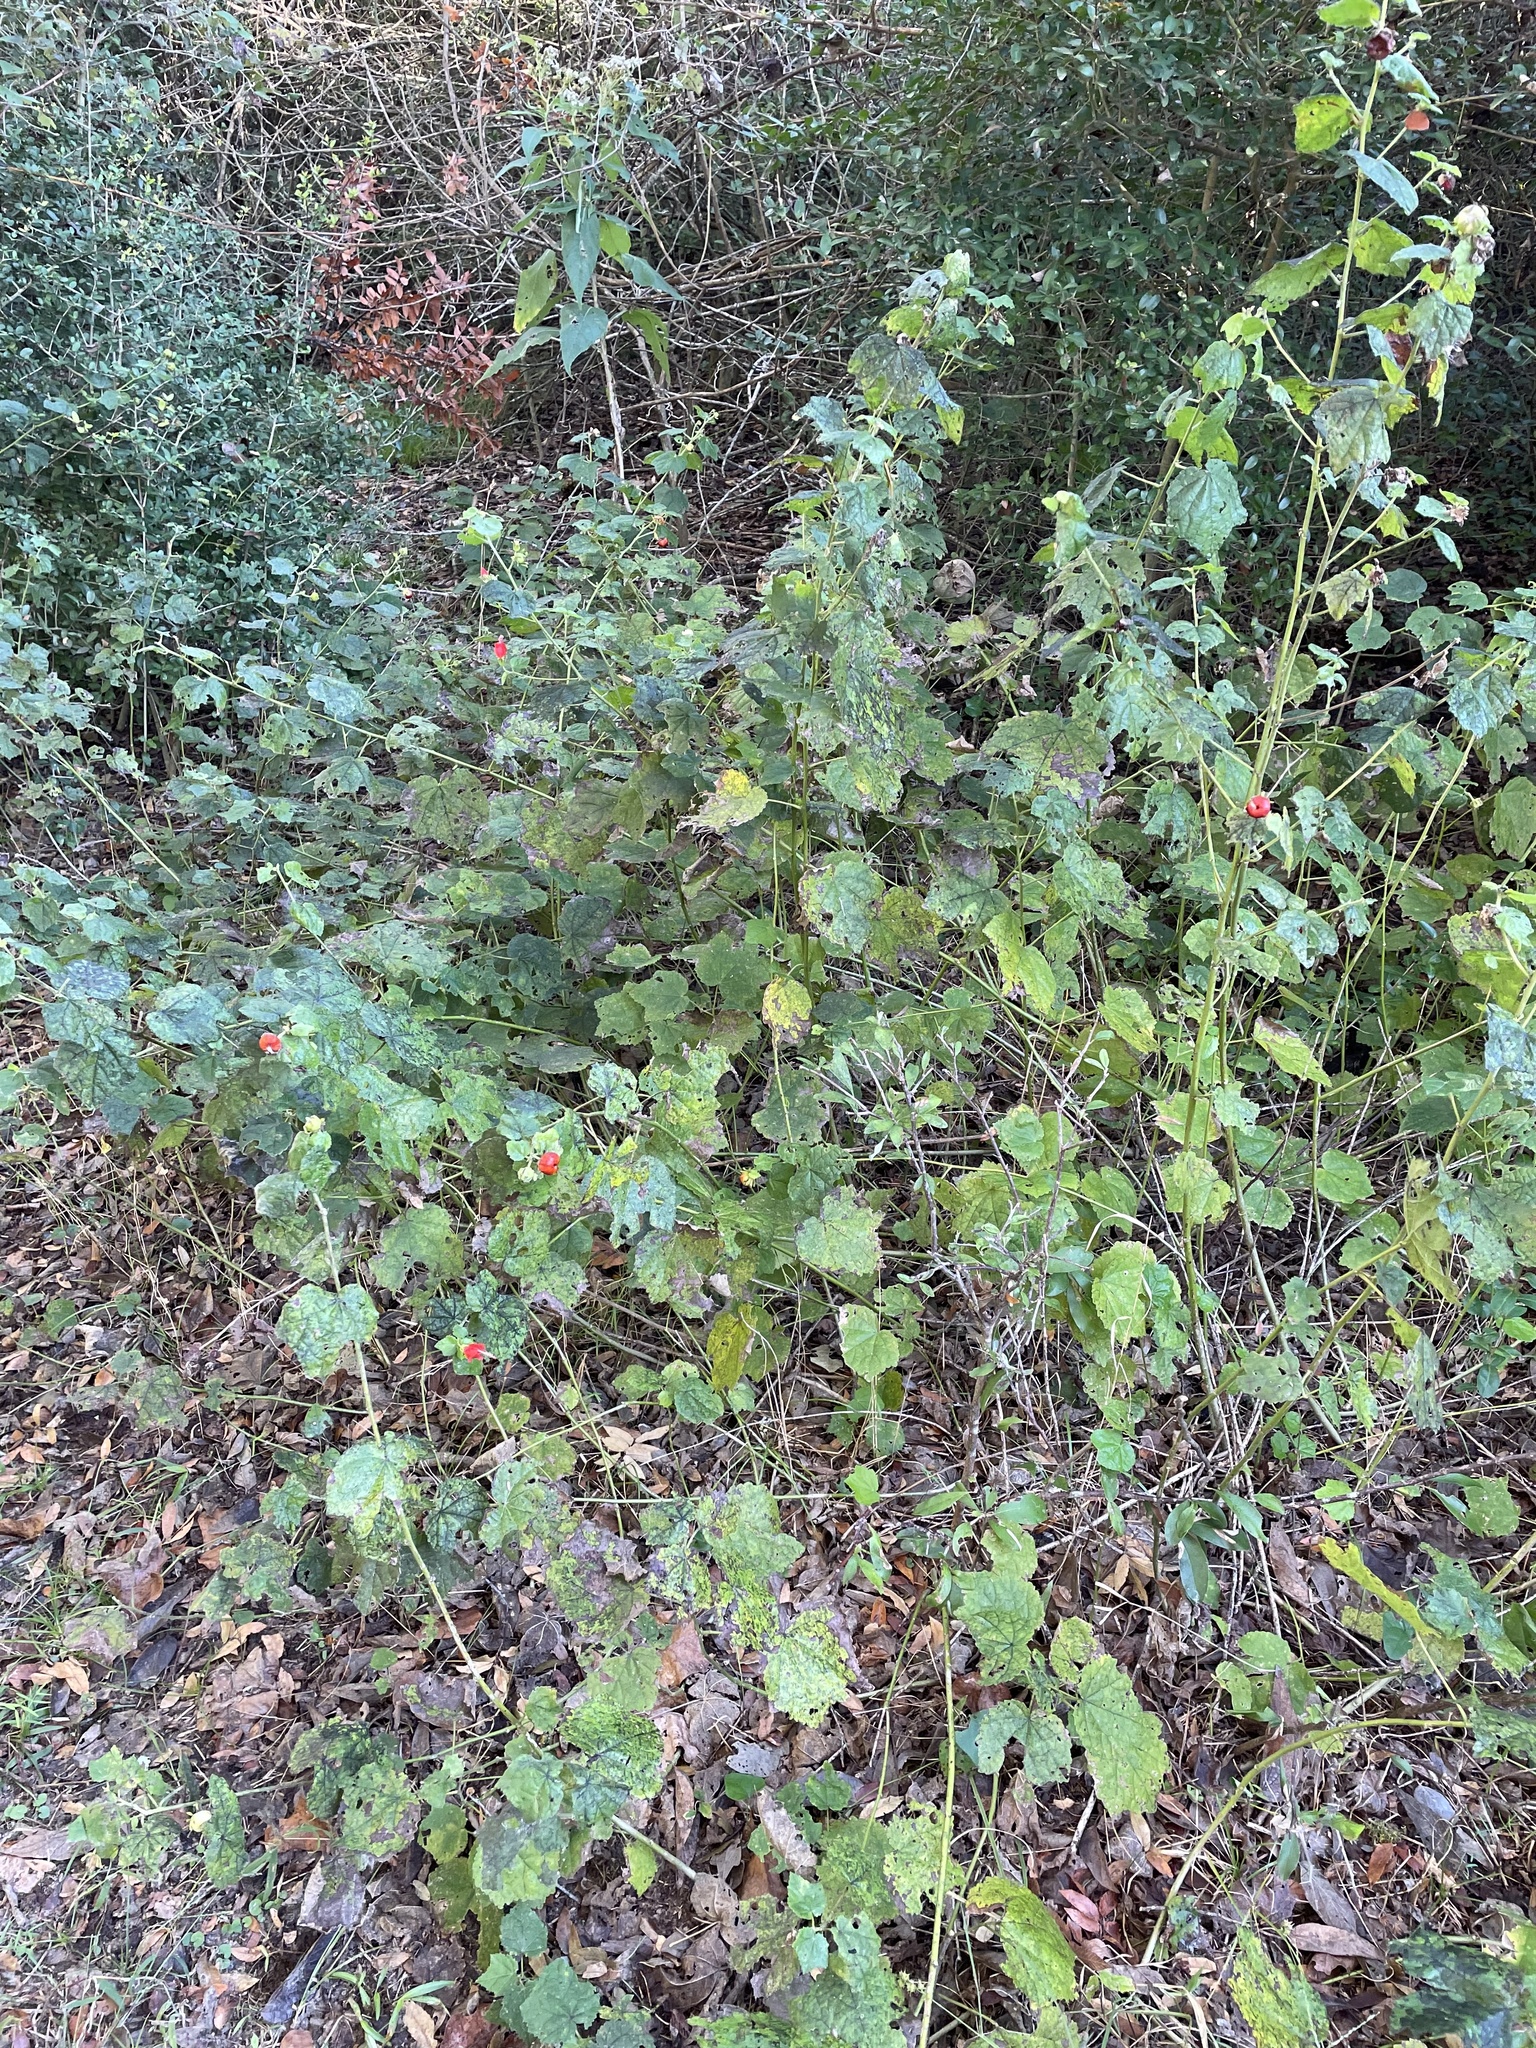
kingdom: Plantae
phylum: Tracheophyta
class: Magnoliopsida
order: Malvales
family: Malvaceae
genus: Malvaviscus
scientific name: Malvaviscus arboreus
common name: Wax mallow
